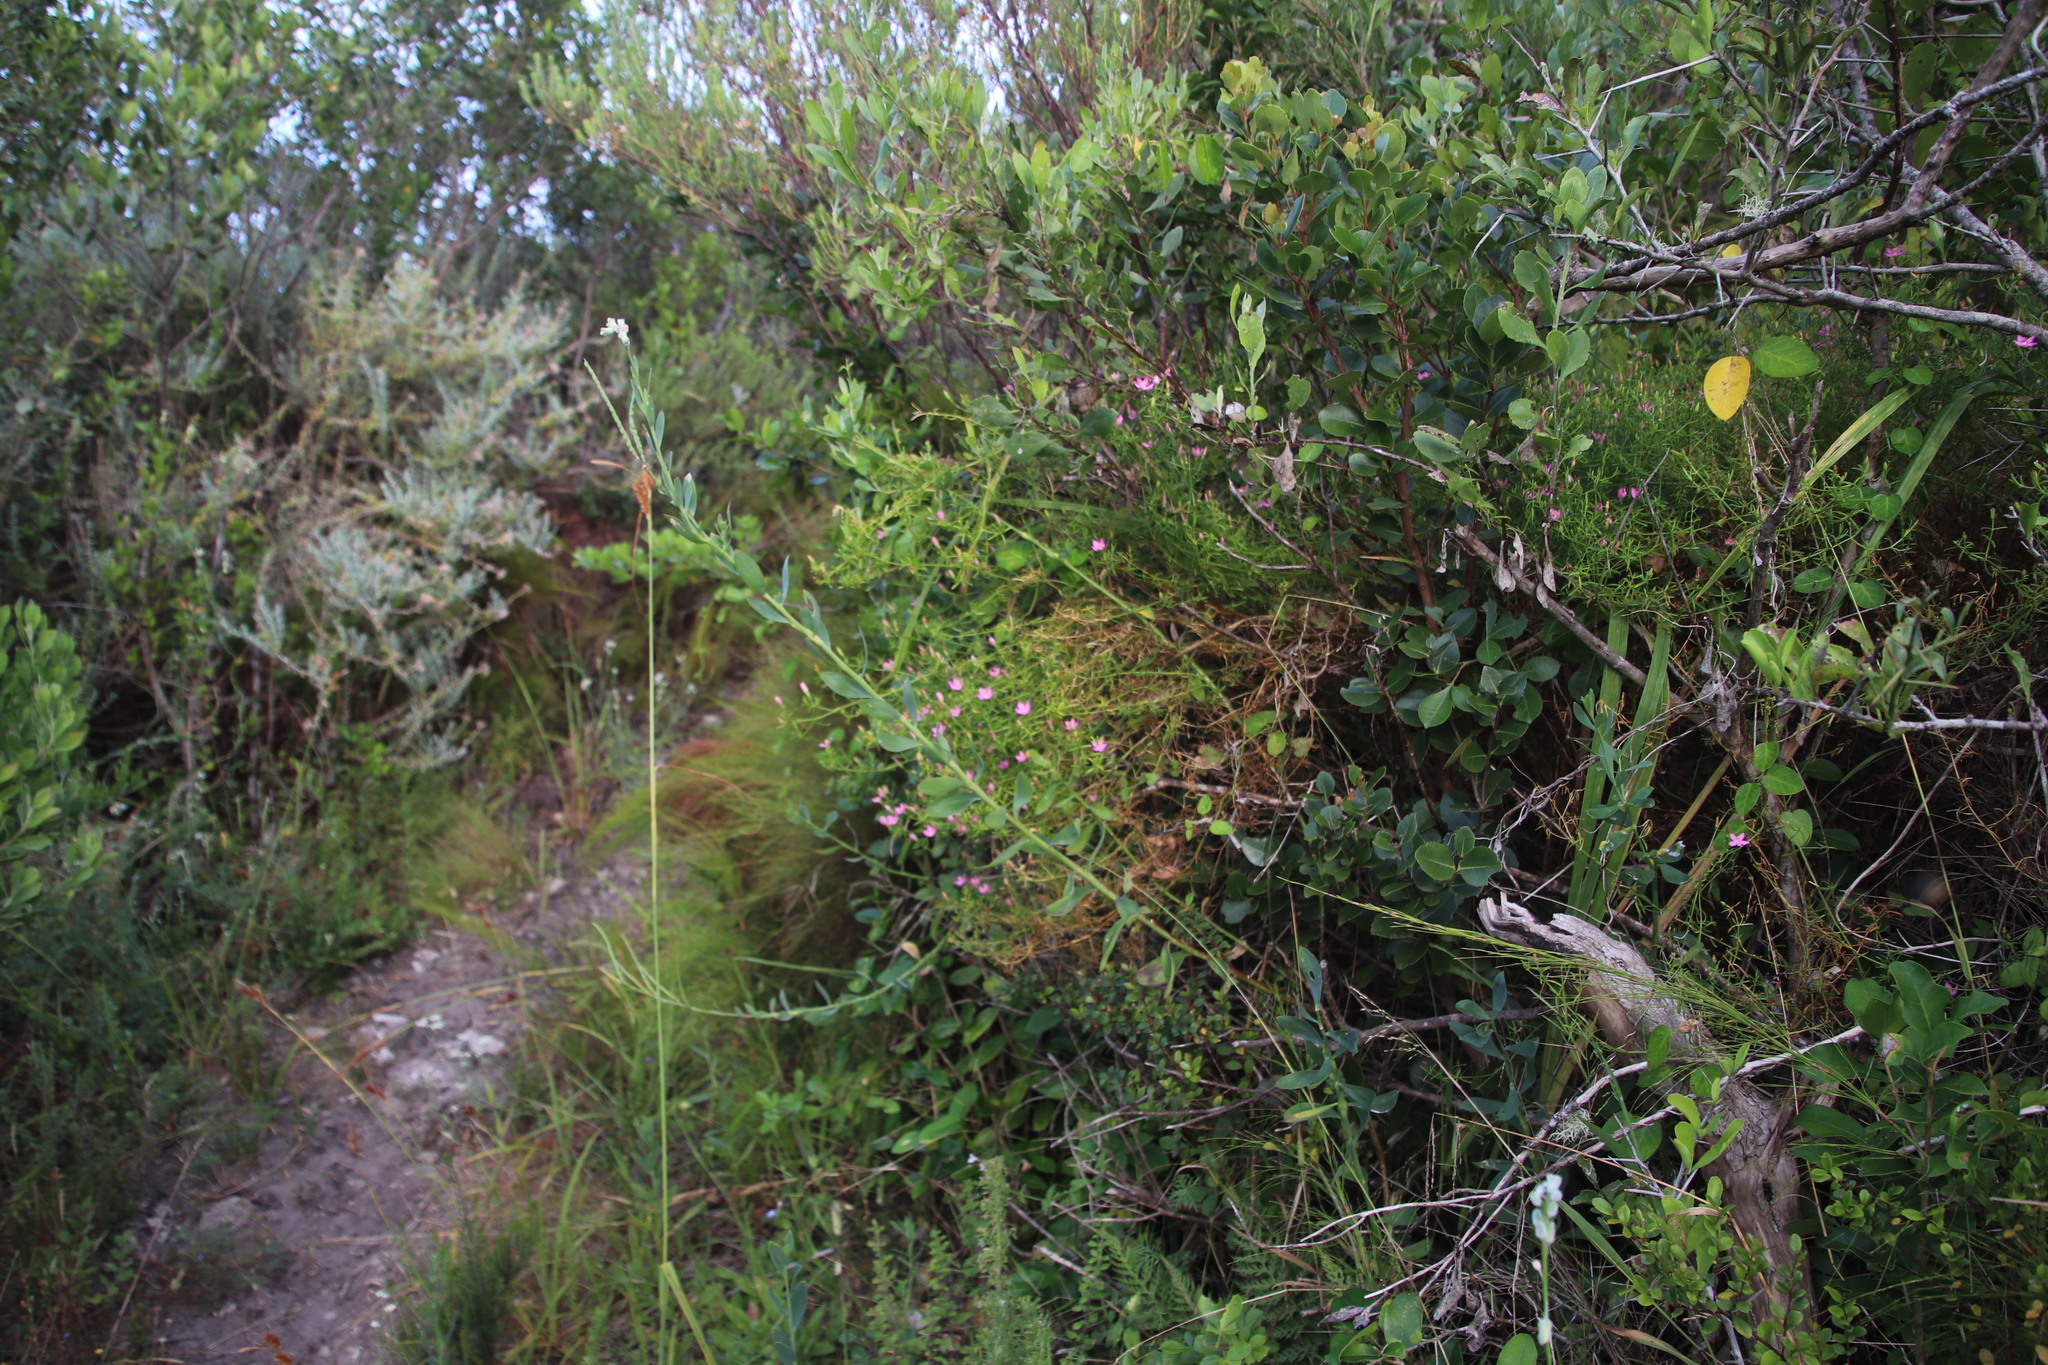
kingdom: Plantae
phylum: Tracheophyta
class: Magnoliopsida
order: Gentianales
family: Gentianaceae
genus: Chironia
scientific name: Chironia baccifera
